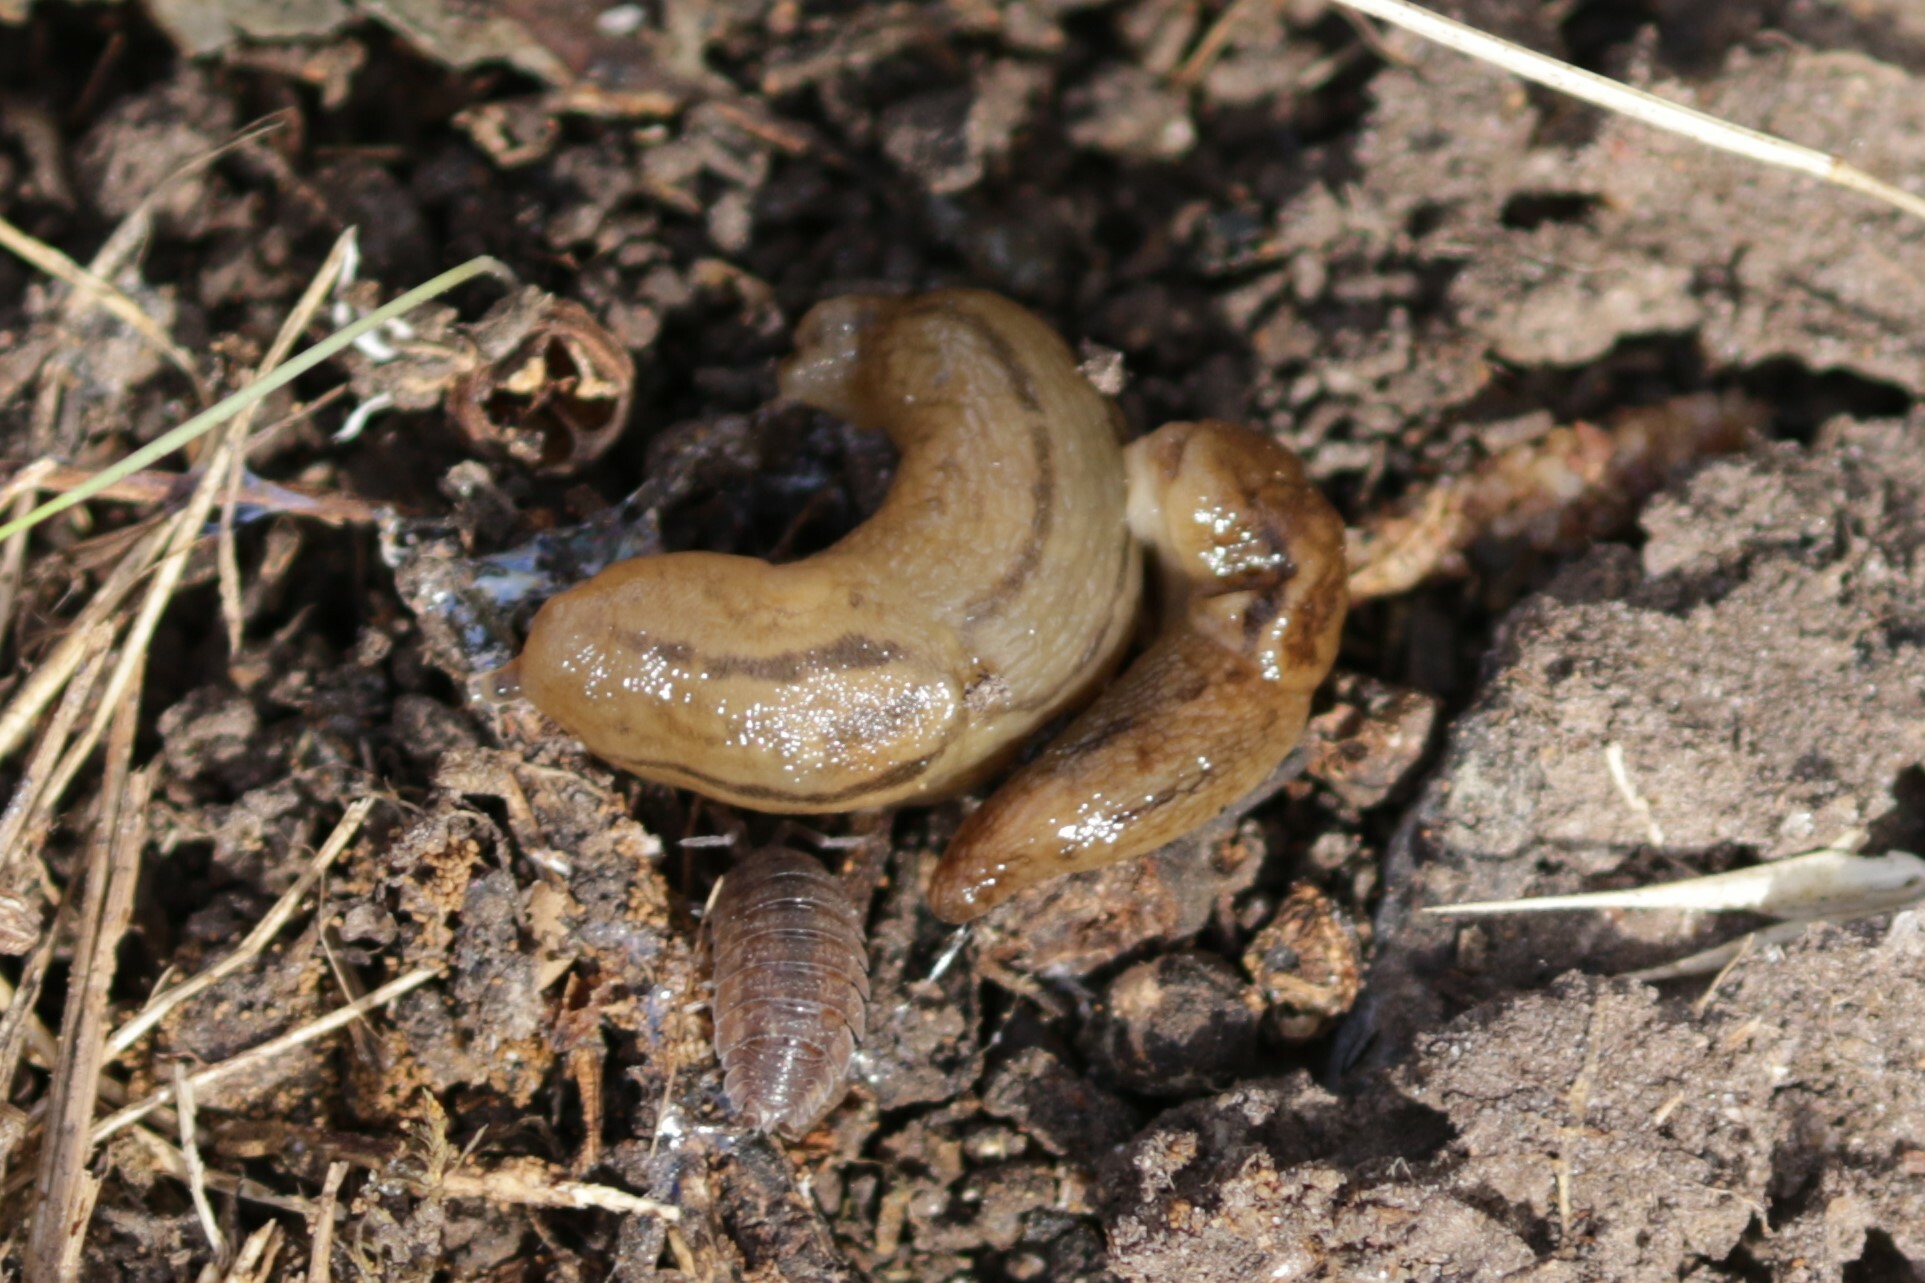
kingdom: Animalia
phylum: Mollusca
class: Gastropoda
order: Stylommatophora
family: Limacidae
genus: Ambigolimax
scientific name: Ambigolimax
